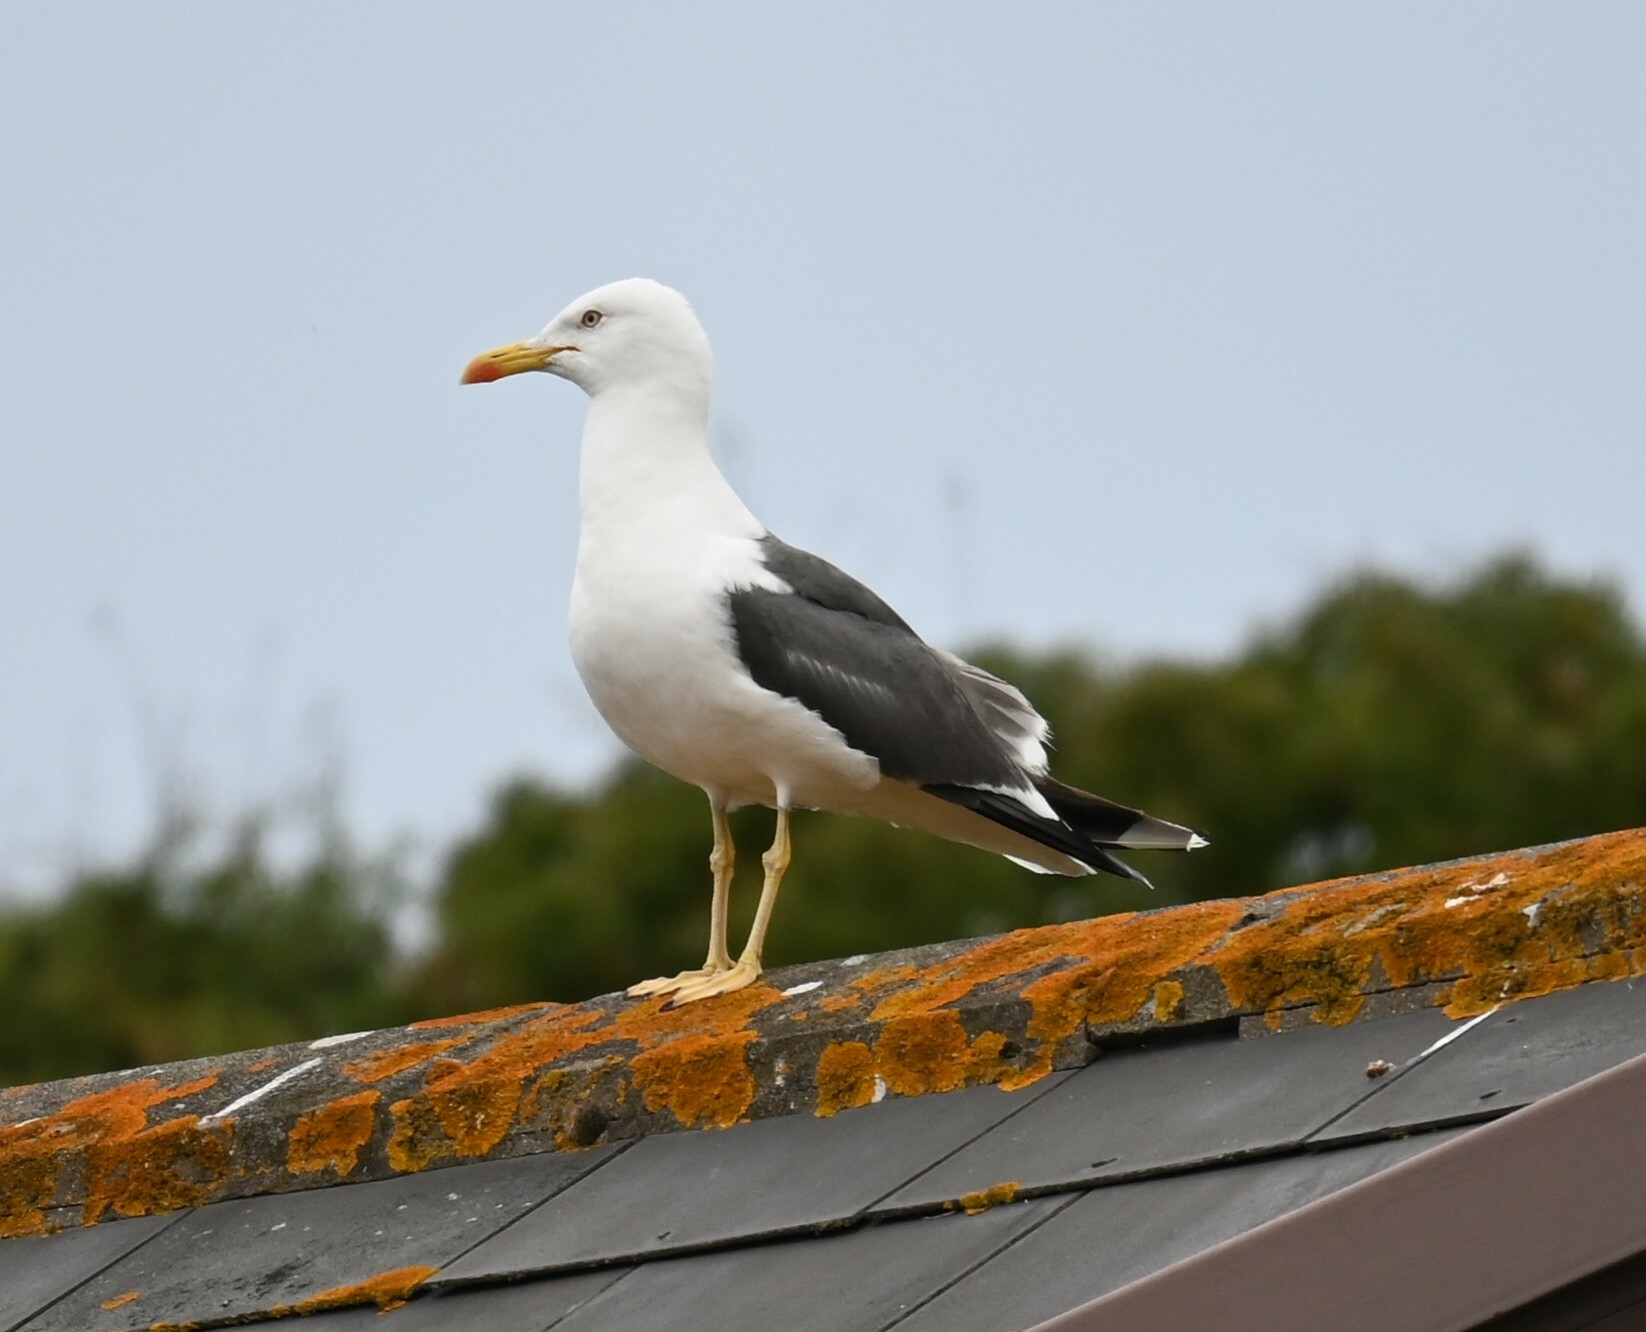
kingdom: Animalia
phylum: Chordata
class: Aves
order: Charadriiformes
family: Laridae
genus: Larus
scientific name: Larus fuscus
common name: Lesser black-backed gull
